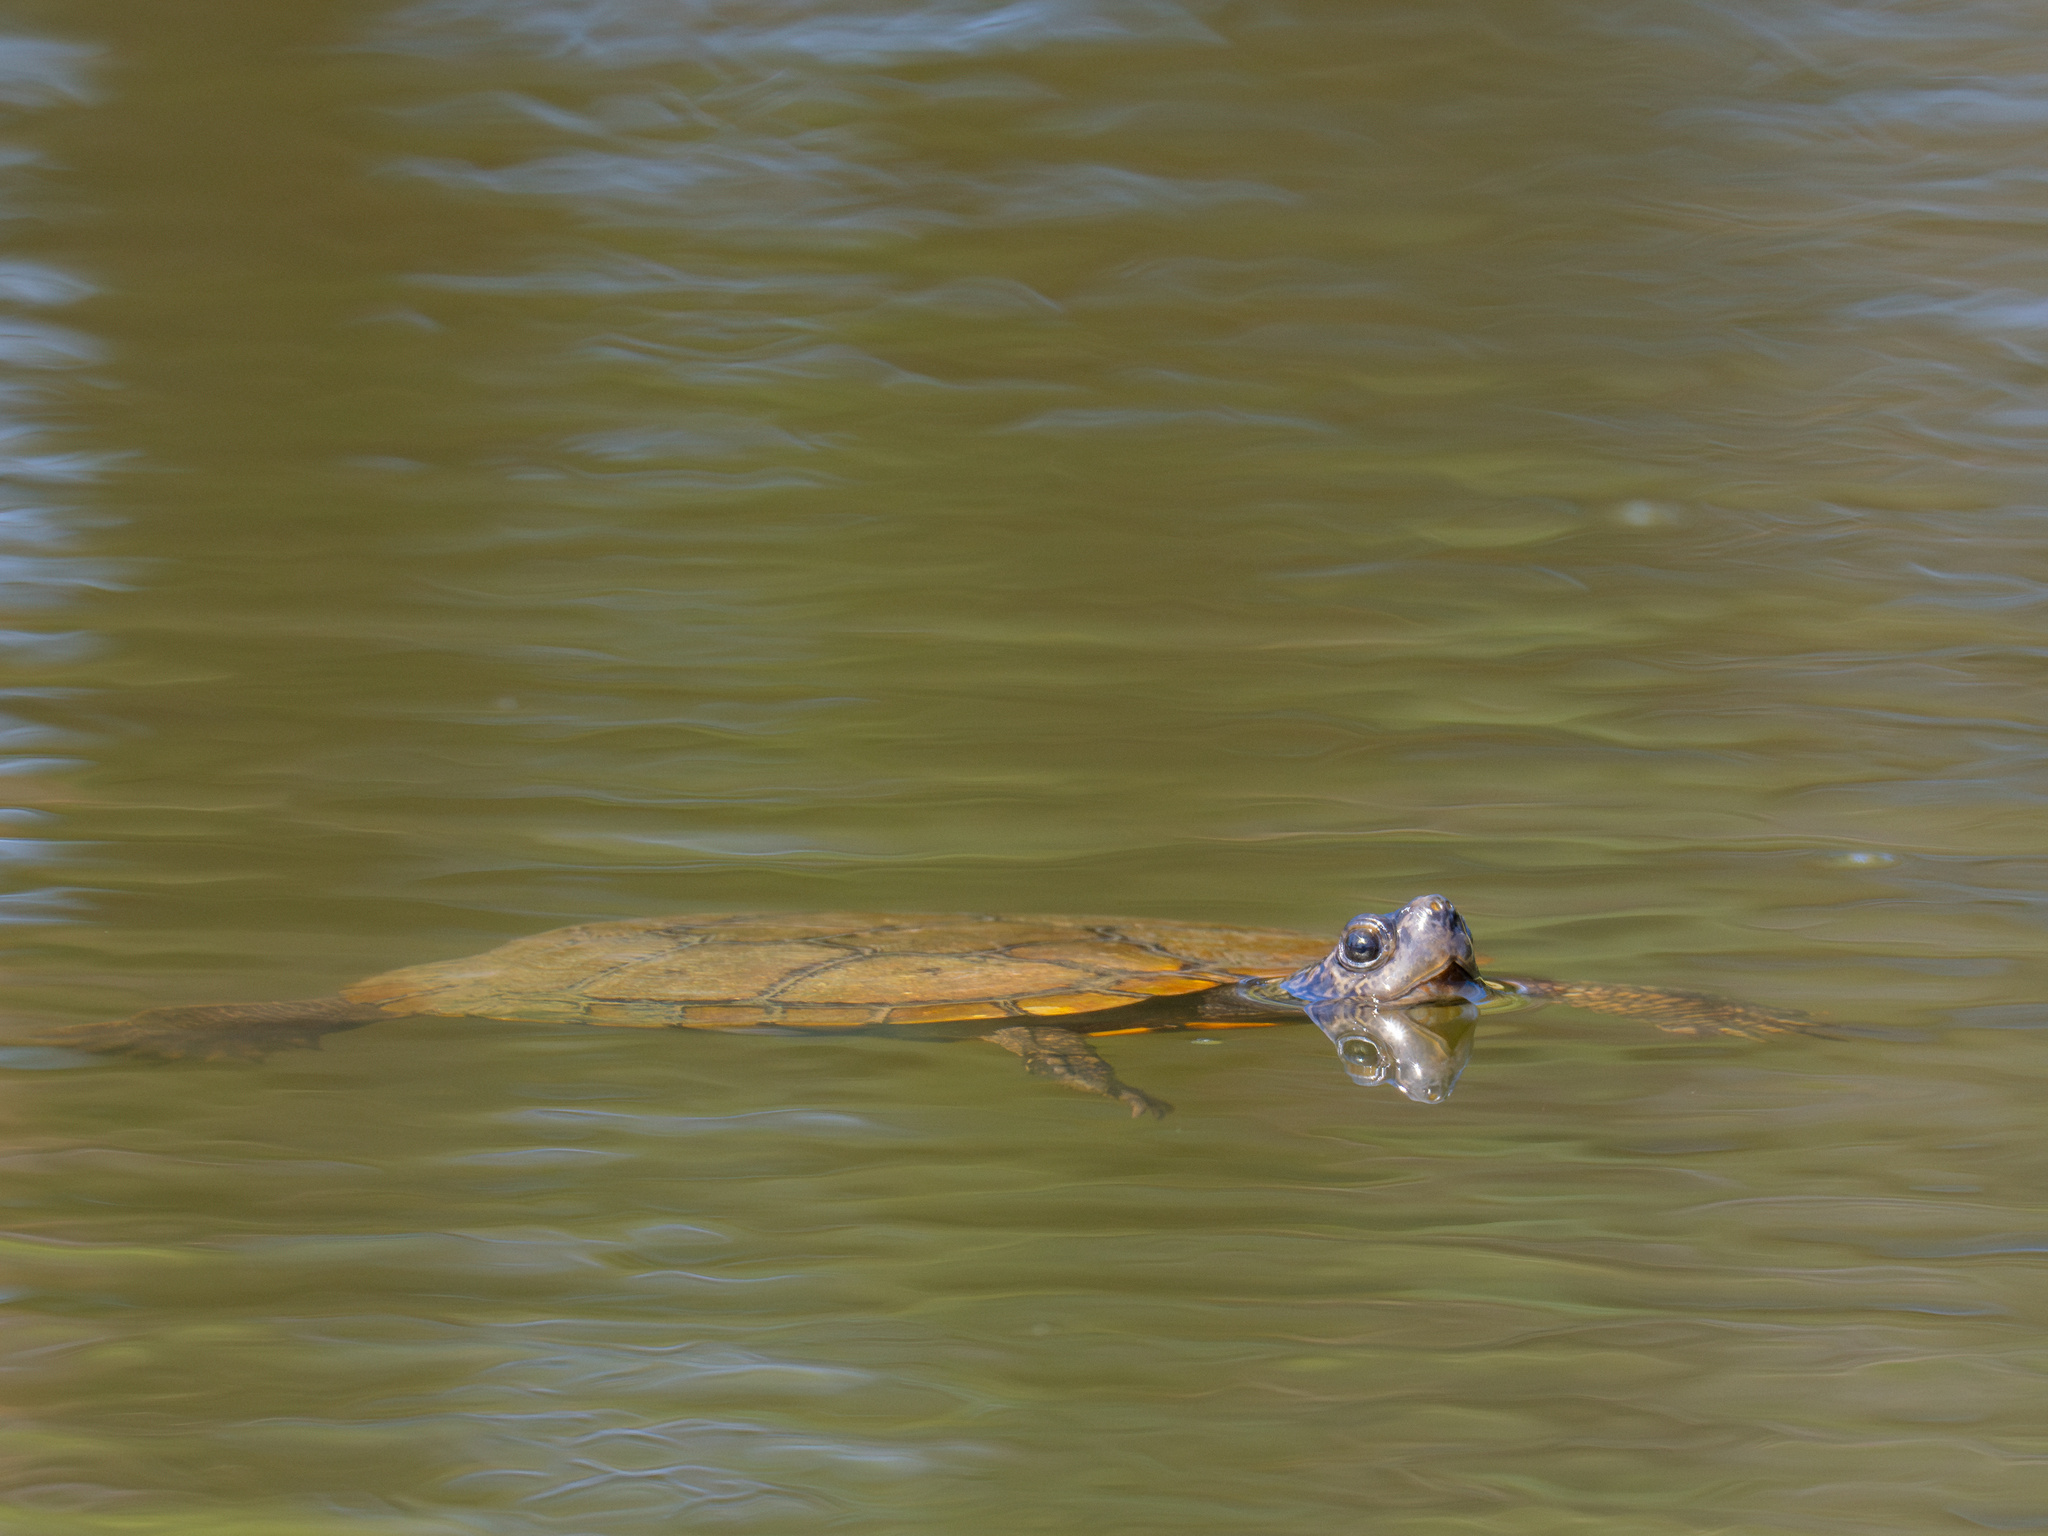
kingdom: Animalia
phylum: Chordata
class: Testudines
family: Emydidae
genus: Trachemys
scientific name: Trachemys scripta
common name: Slider
